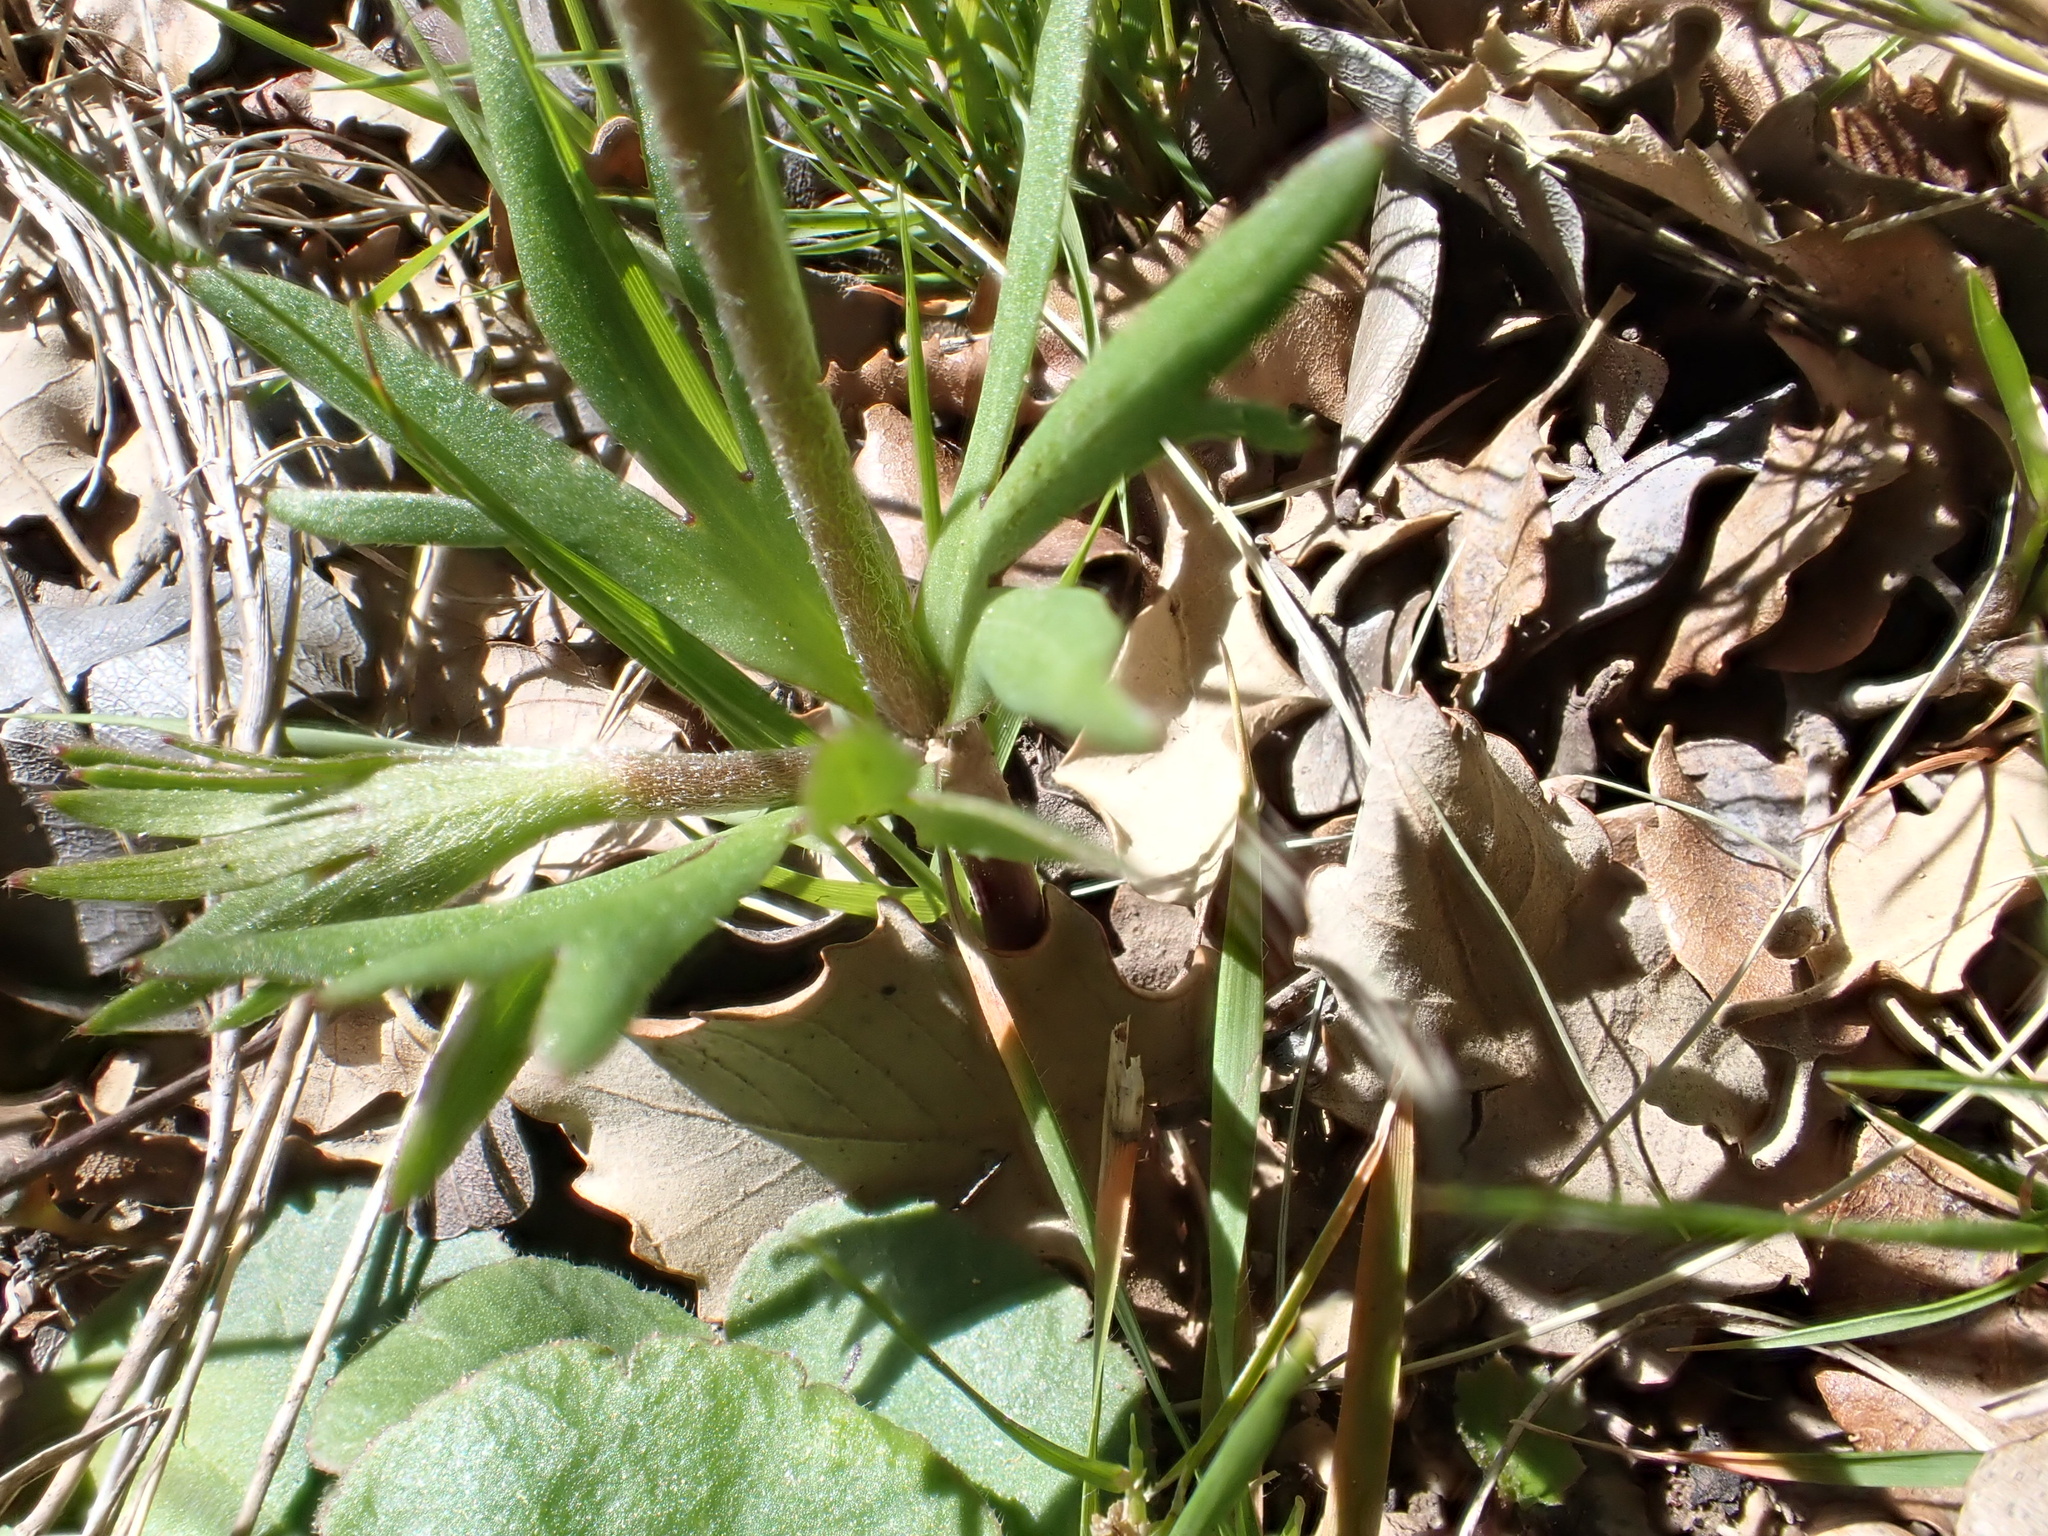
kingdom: Plantae
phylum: Tracheophyta
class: Magnoliopsida
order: Ranunculales
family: Ranunculaceae
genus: Anemone
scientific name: Anemone palmata
